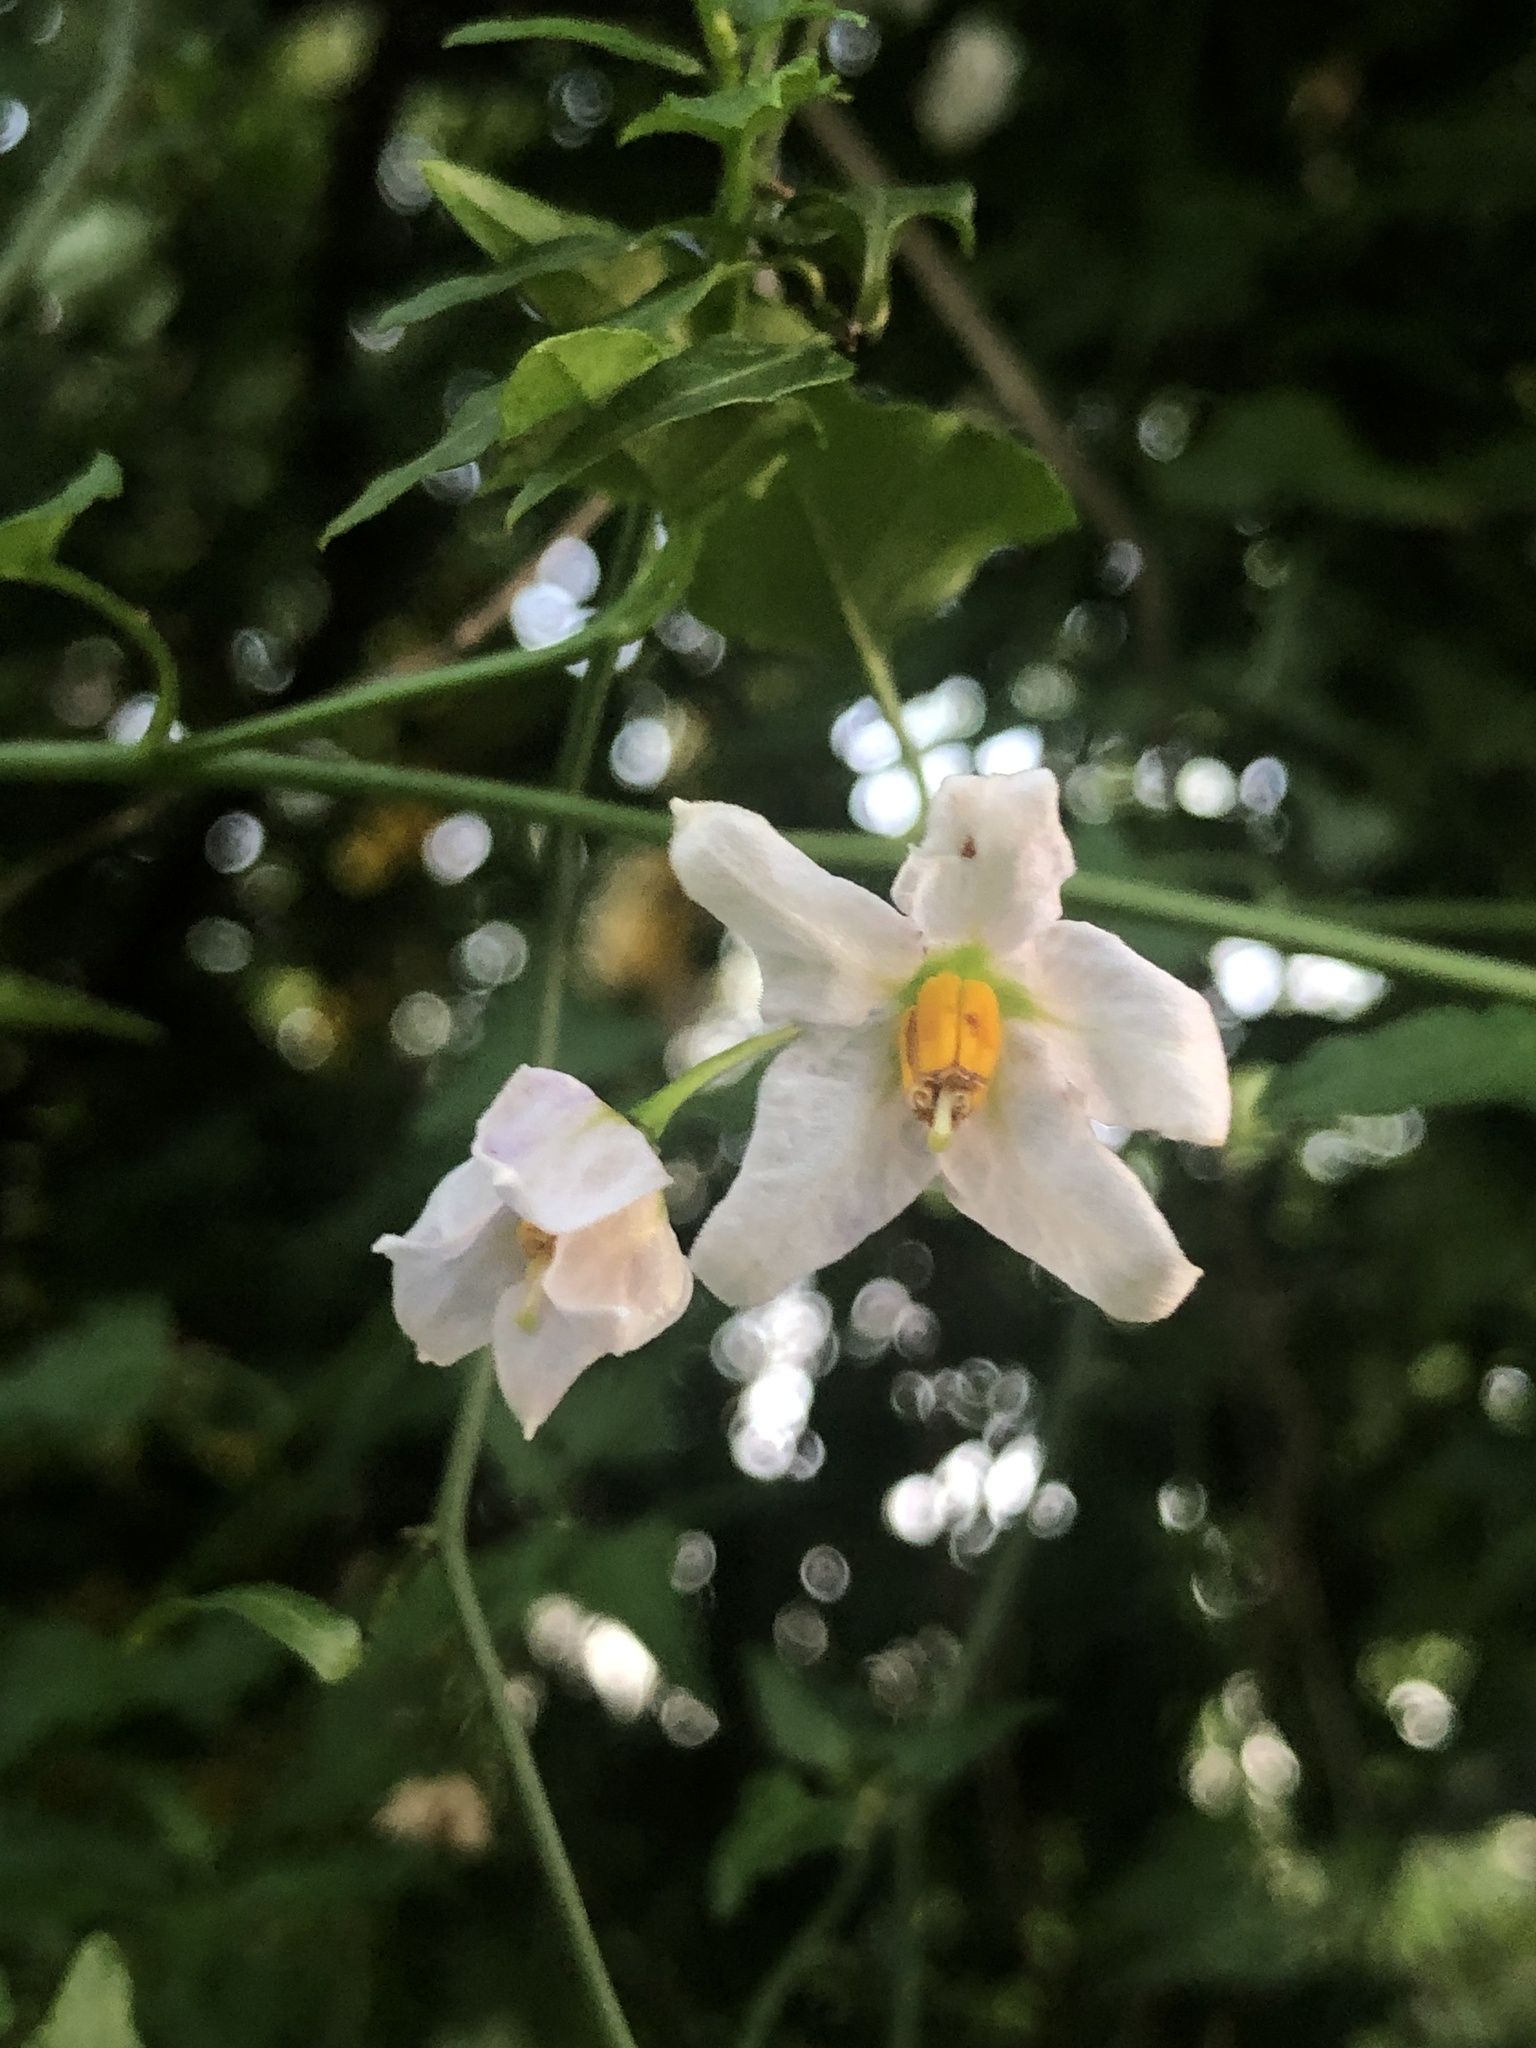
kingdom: Plantae
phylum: Tracheophyta
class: Magnoliopsida
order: Solanales
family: Solanaceae
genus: Solanum
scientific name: Solanum triquetrum
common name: Texas nightshade
